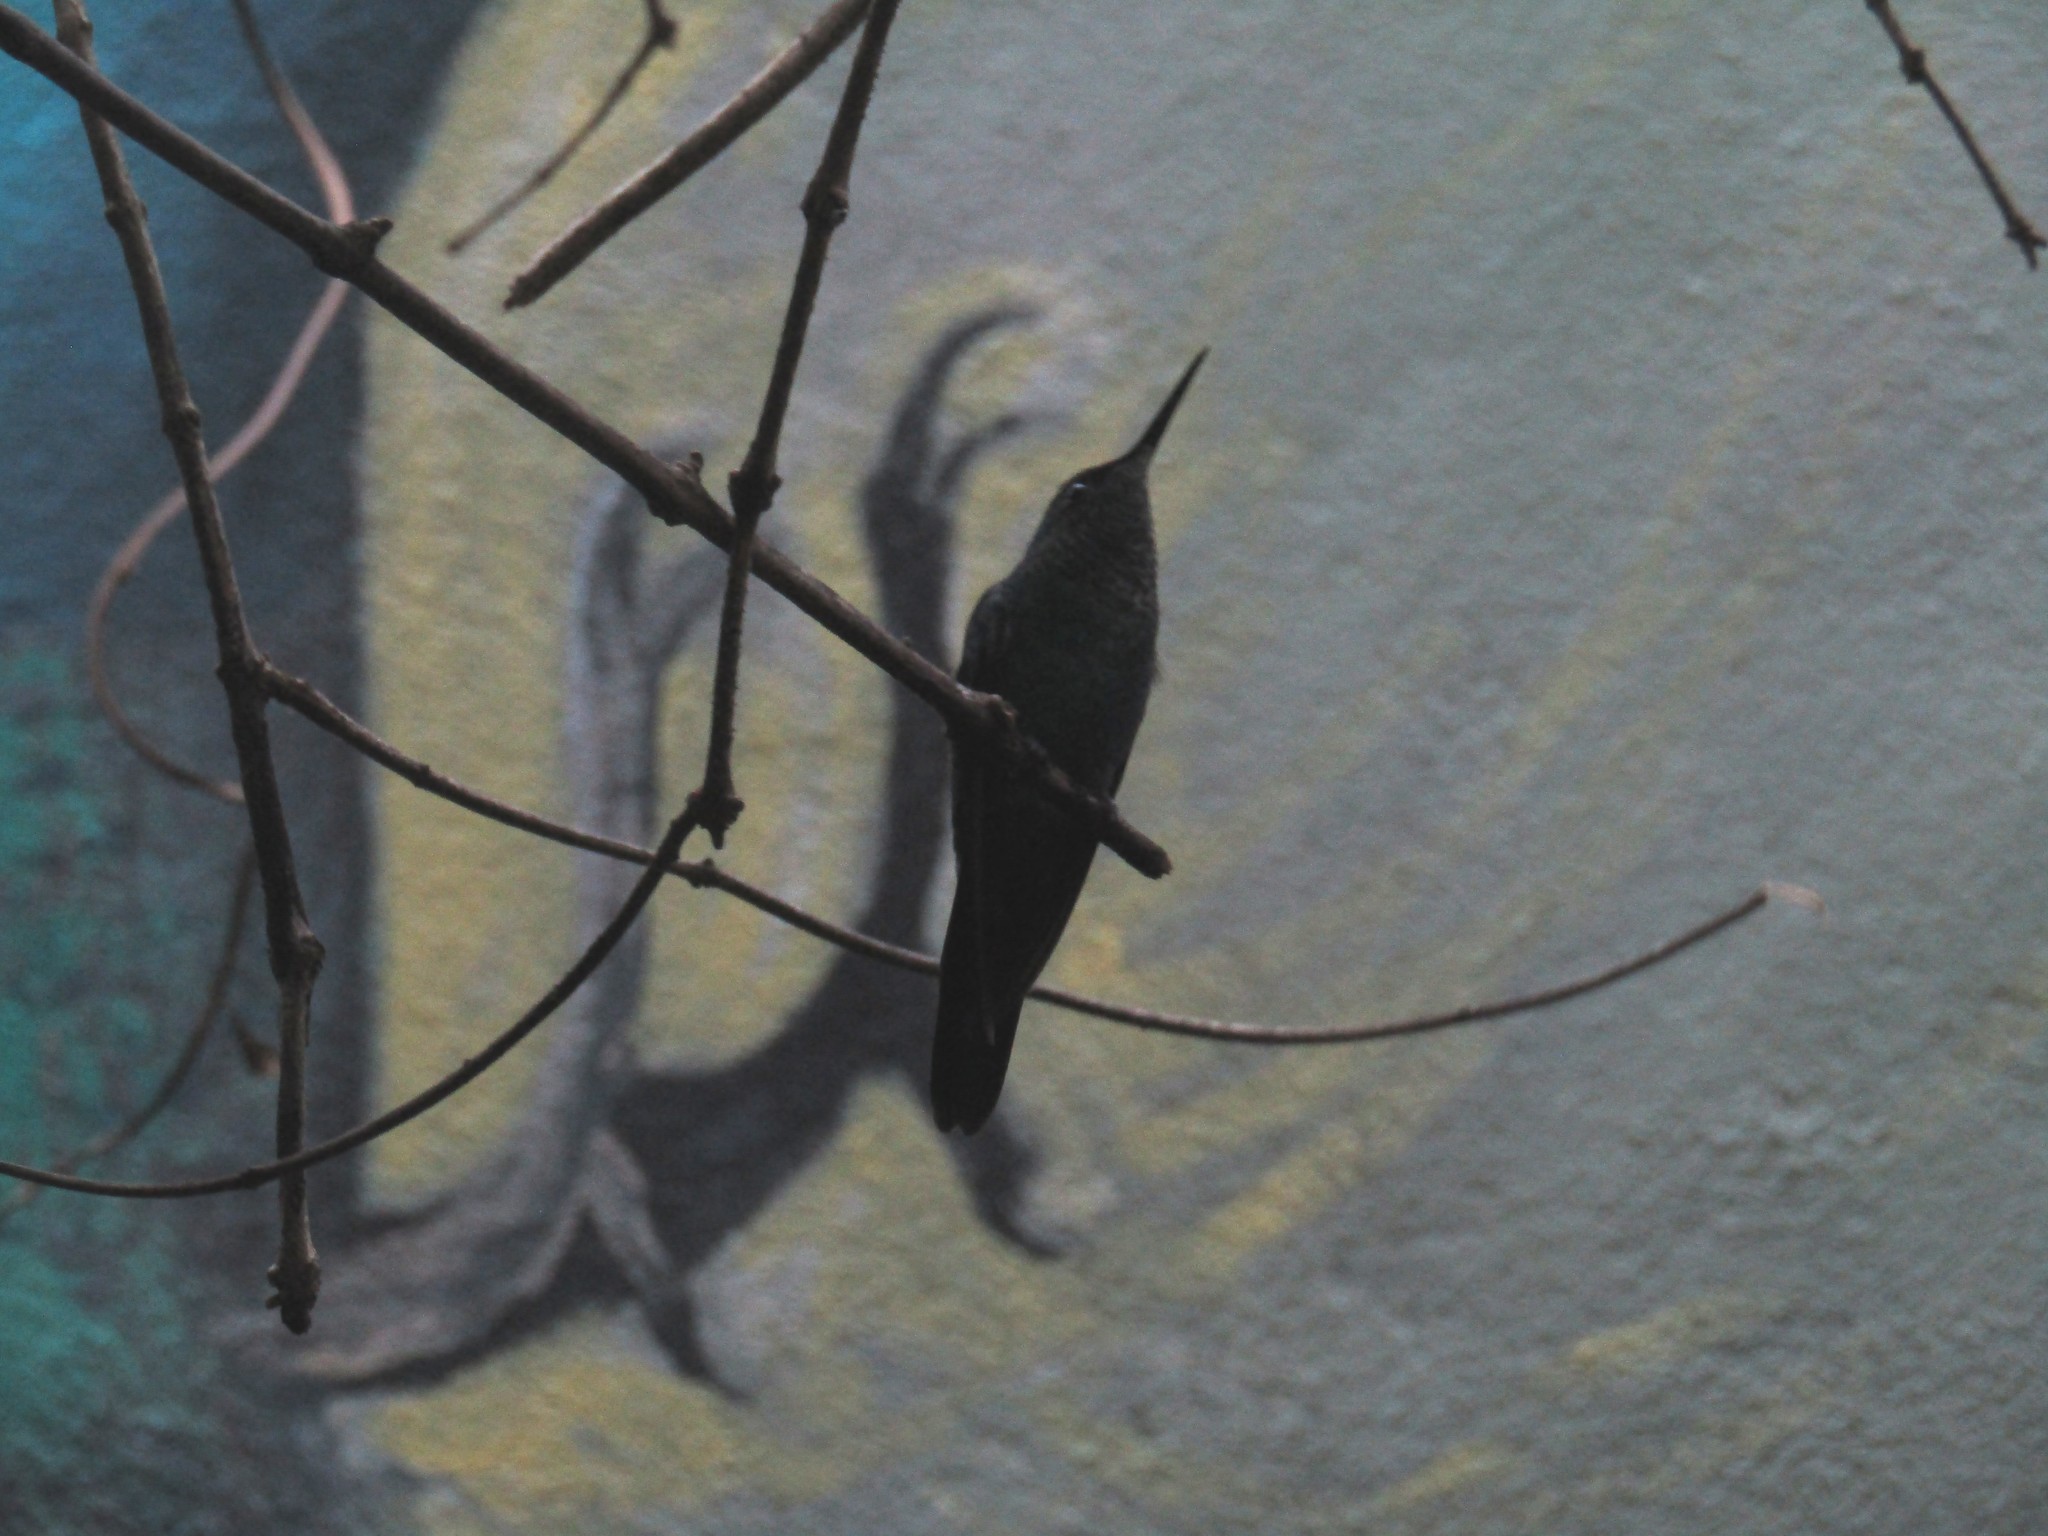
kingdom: Animalia
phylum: Chordata
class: Aves
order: Apodiformes
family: Trochilidae
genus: Florisuga
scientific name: Florisuga fusca
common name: Black jacobin
